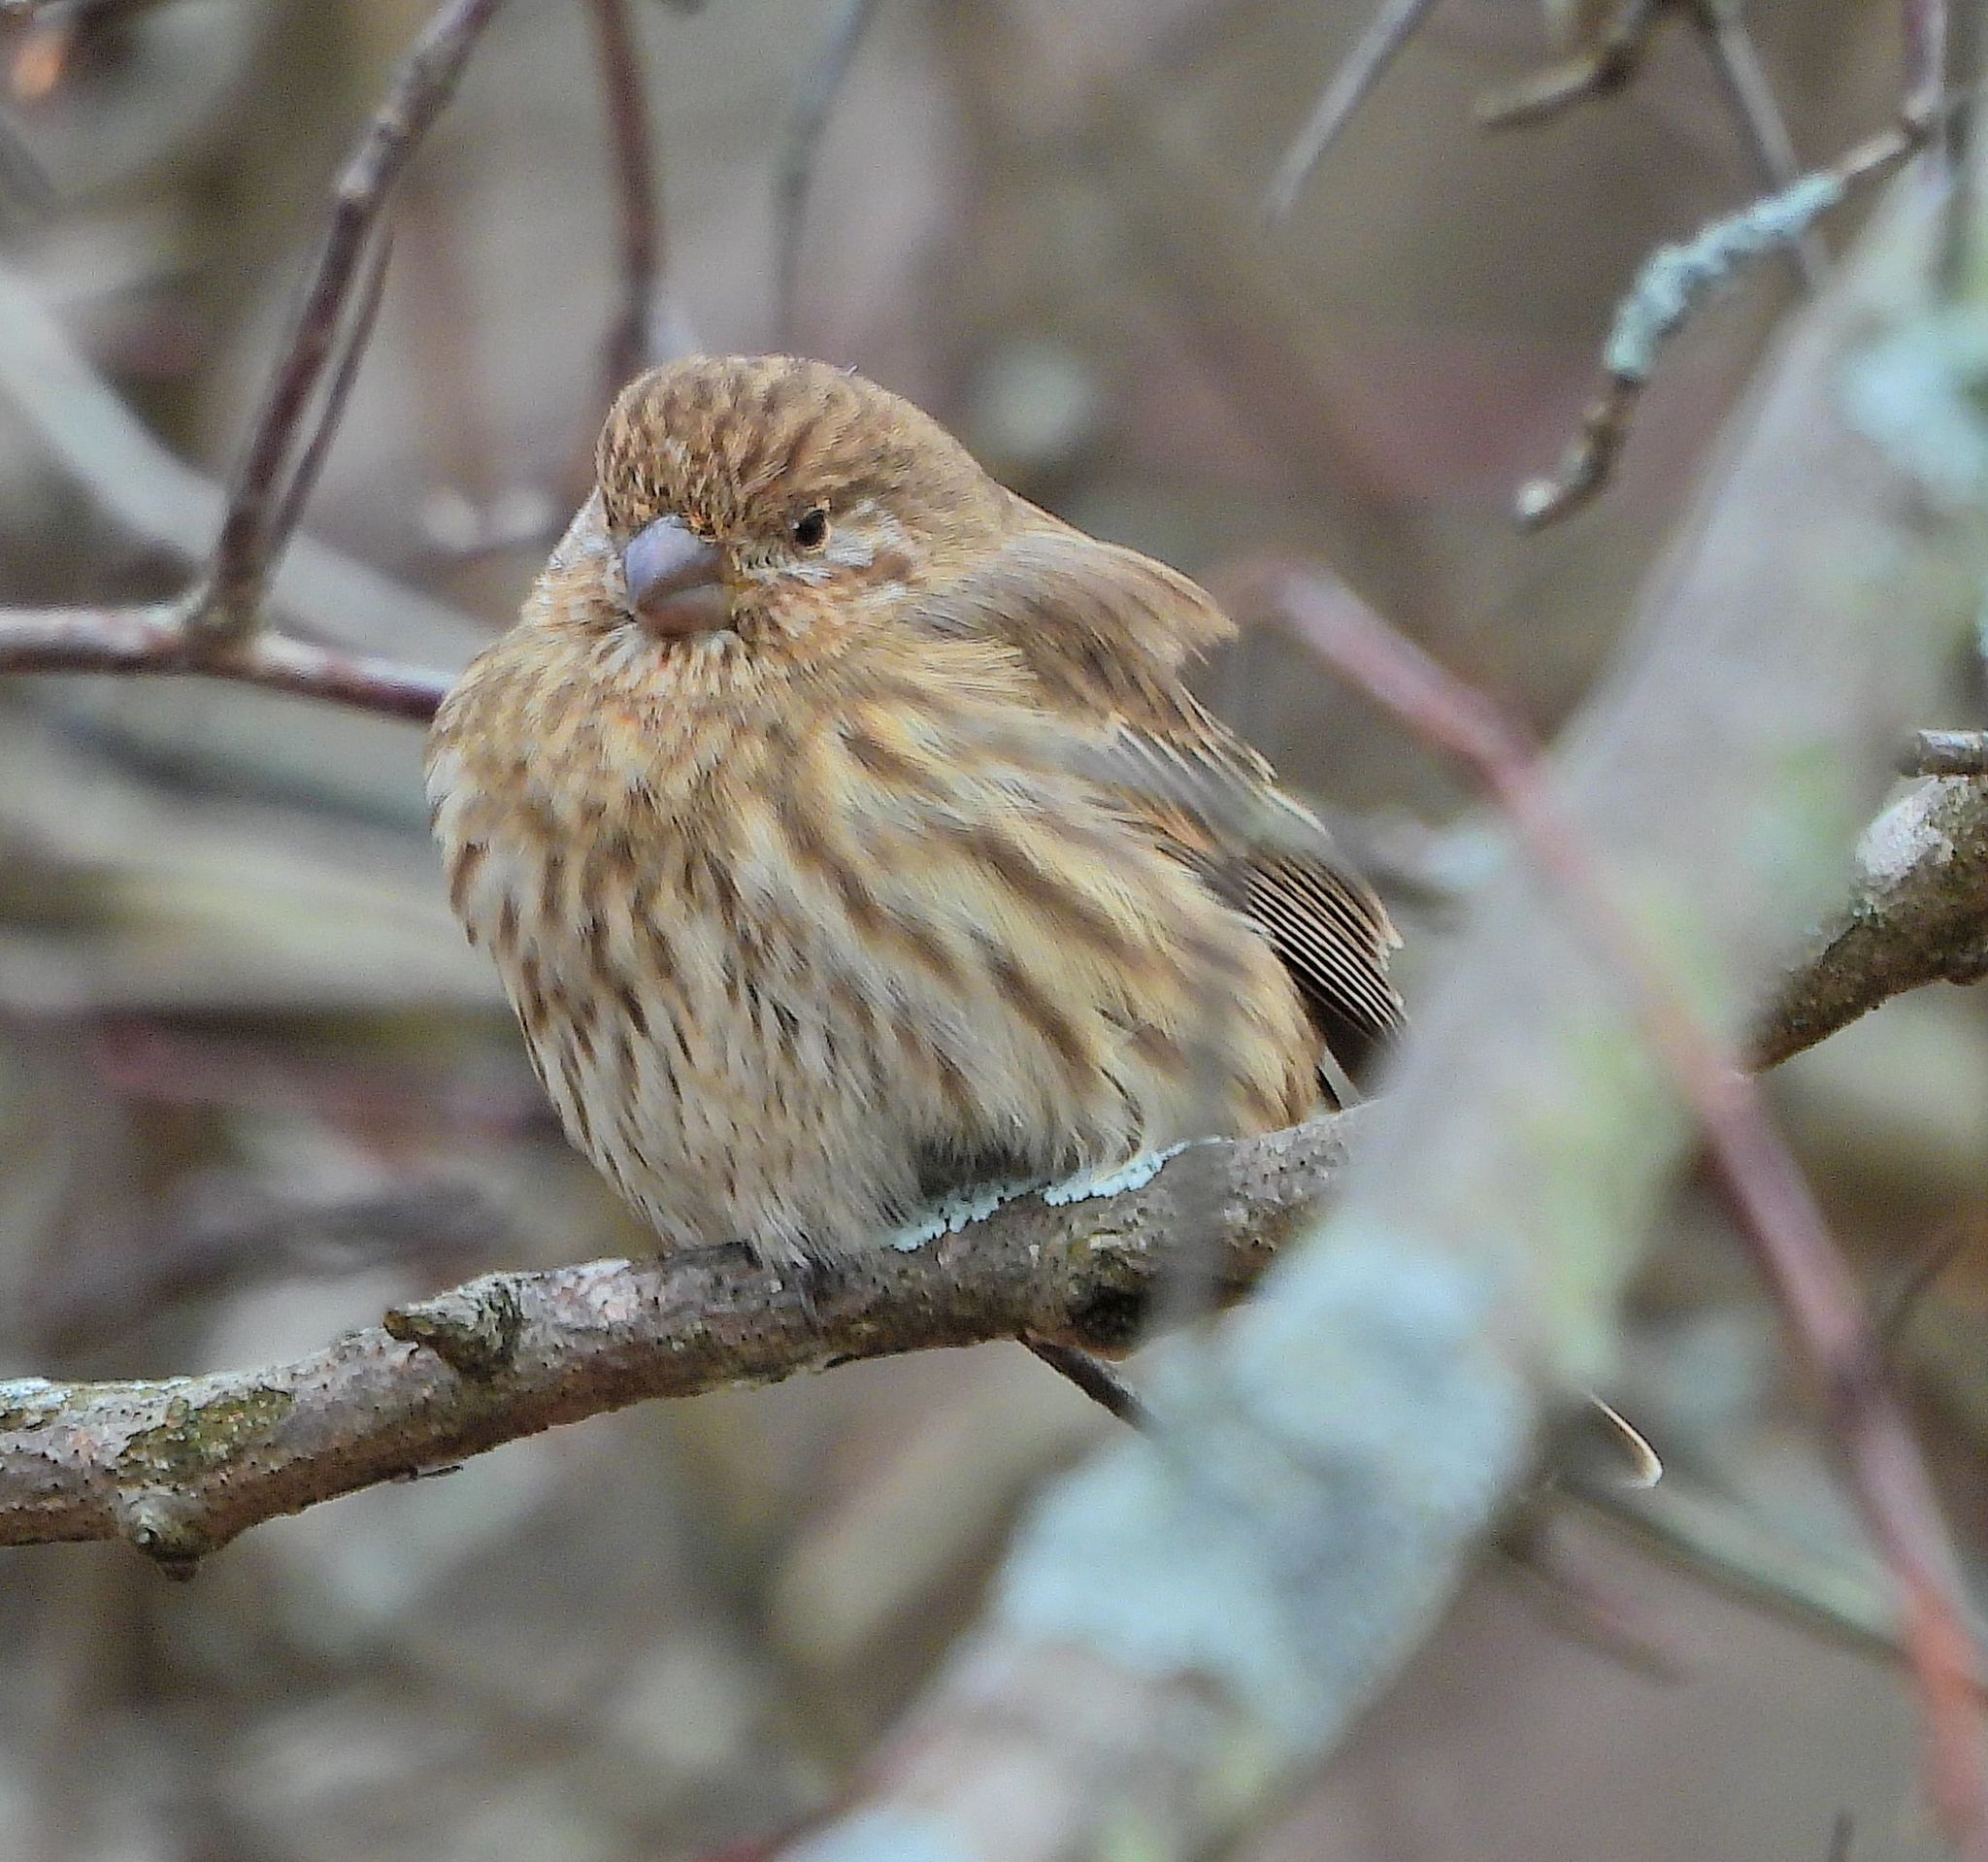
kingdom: Animalia
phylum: Chordata
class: Aves
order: Passeriformes
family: Fringillidae
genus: Haemorhous
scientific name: Haemorhous mexicanus
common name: House finch
